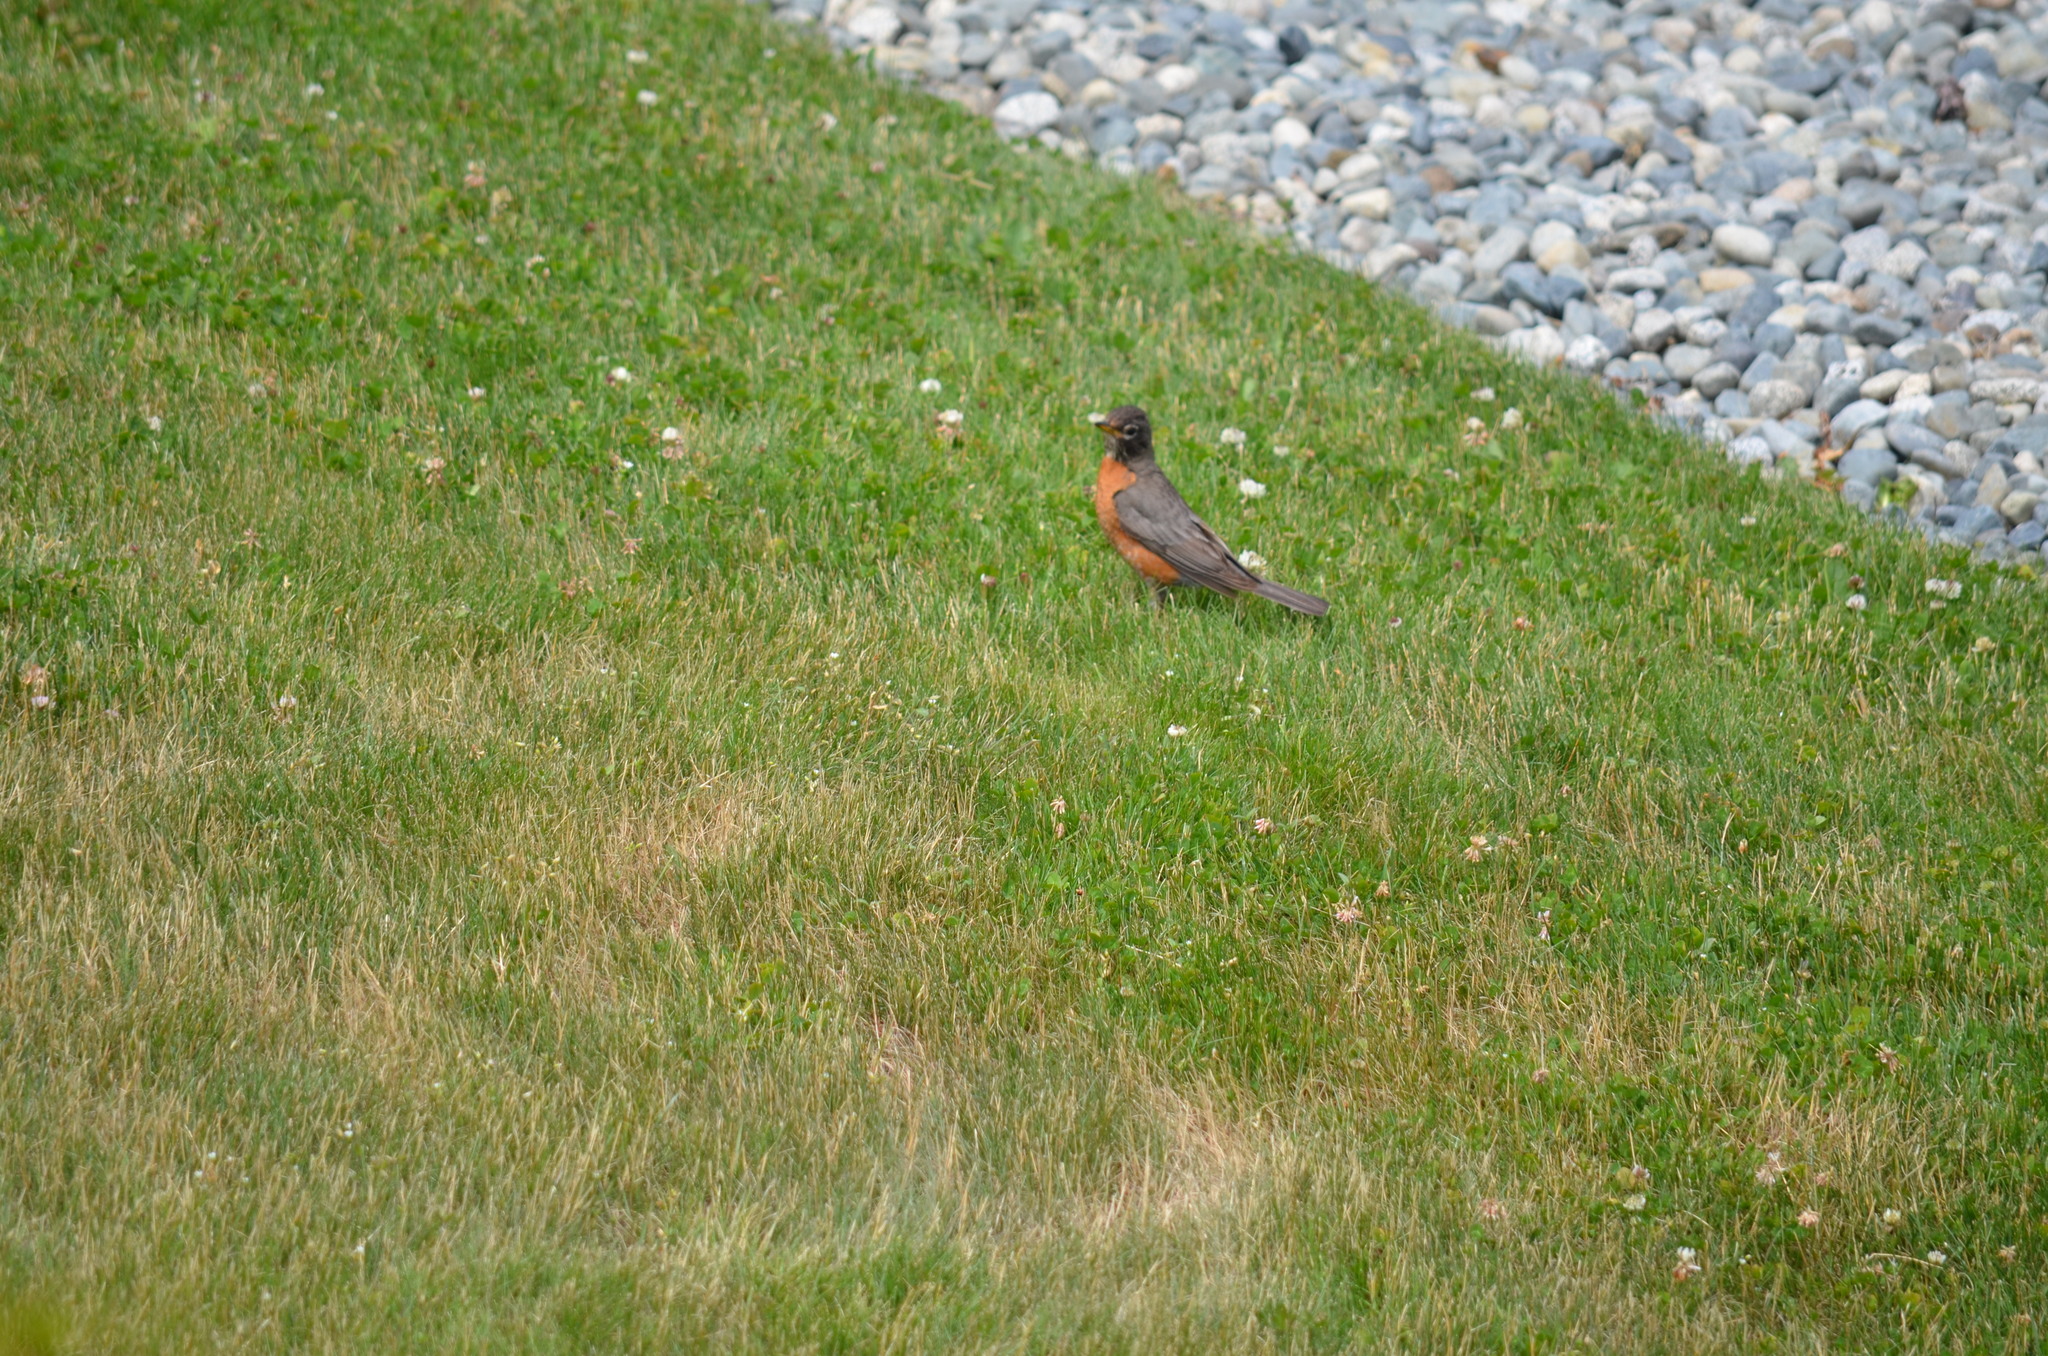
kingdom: Animalia
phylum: Chordata
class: Aves
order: Passeriformes
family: Turdidae
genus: Turdus
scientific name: Turdus migratorius
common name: American robin
